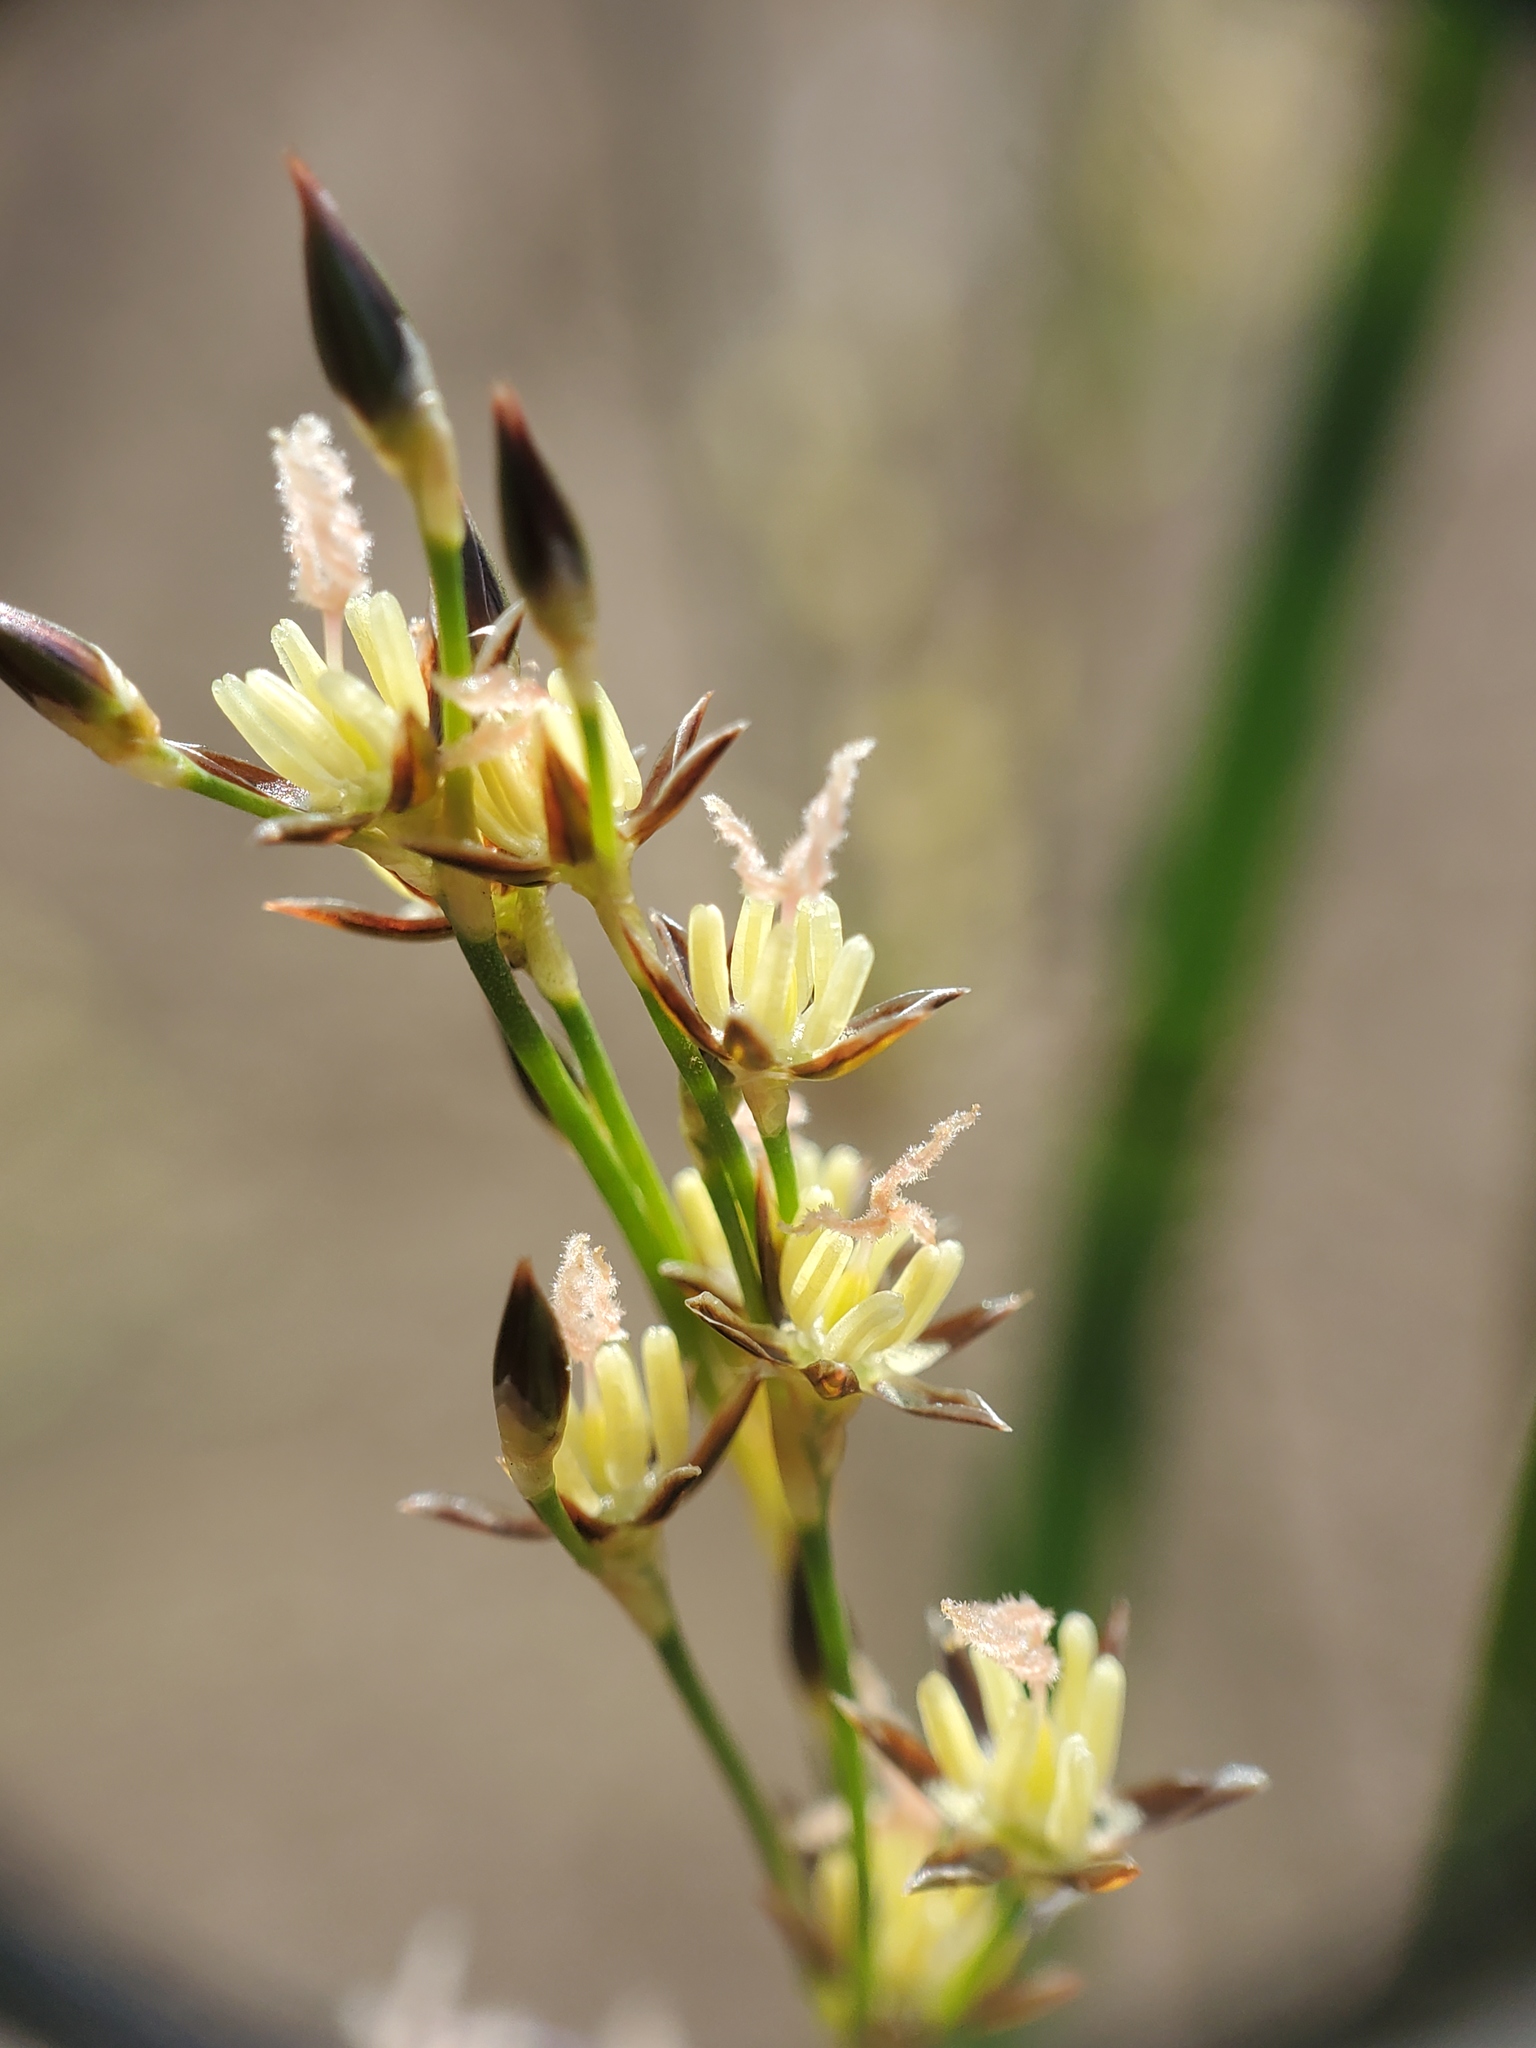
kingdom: Plantae
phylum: Tracheophyta
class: Liliopsida
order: Poales
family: Juncaceae
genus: Juncus
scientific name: Juncus balticus
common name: Baltic rush
